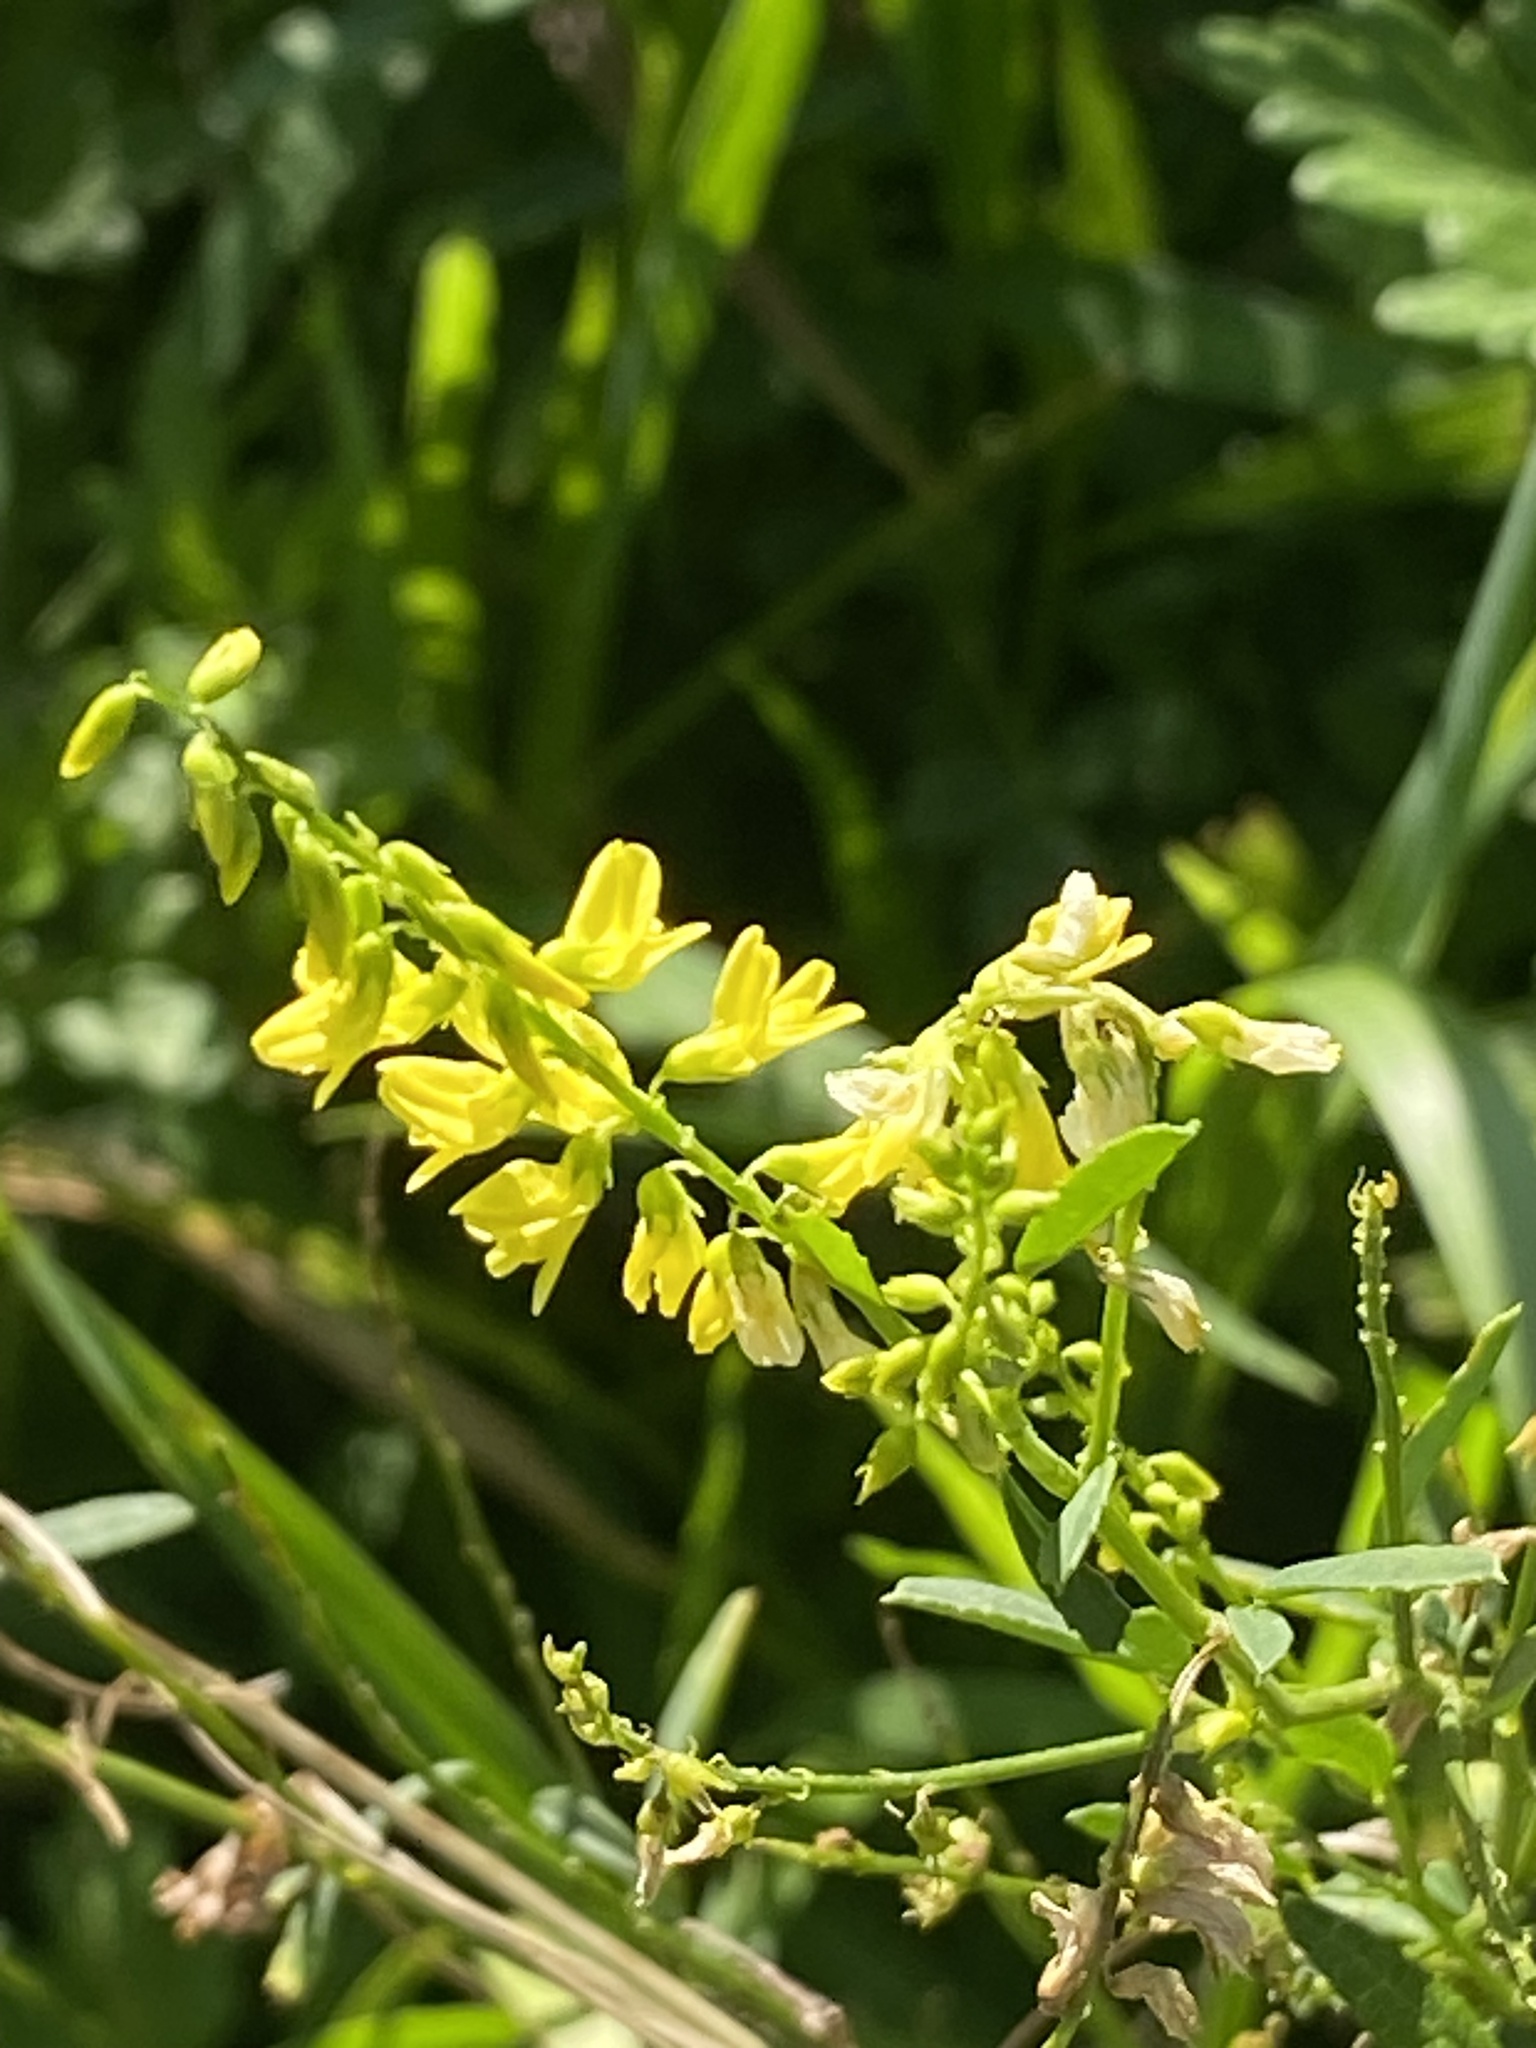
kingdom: Plantae
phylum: Tracheophyta
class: Magnoliopsida
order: Fabales
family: Fabaceae
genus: Melilotus
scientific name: Melilotus officinalis
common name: Sweetclover
